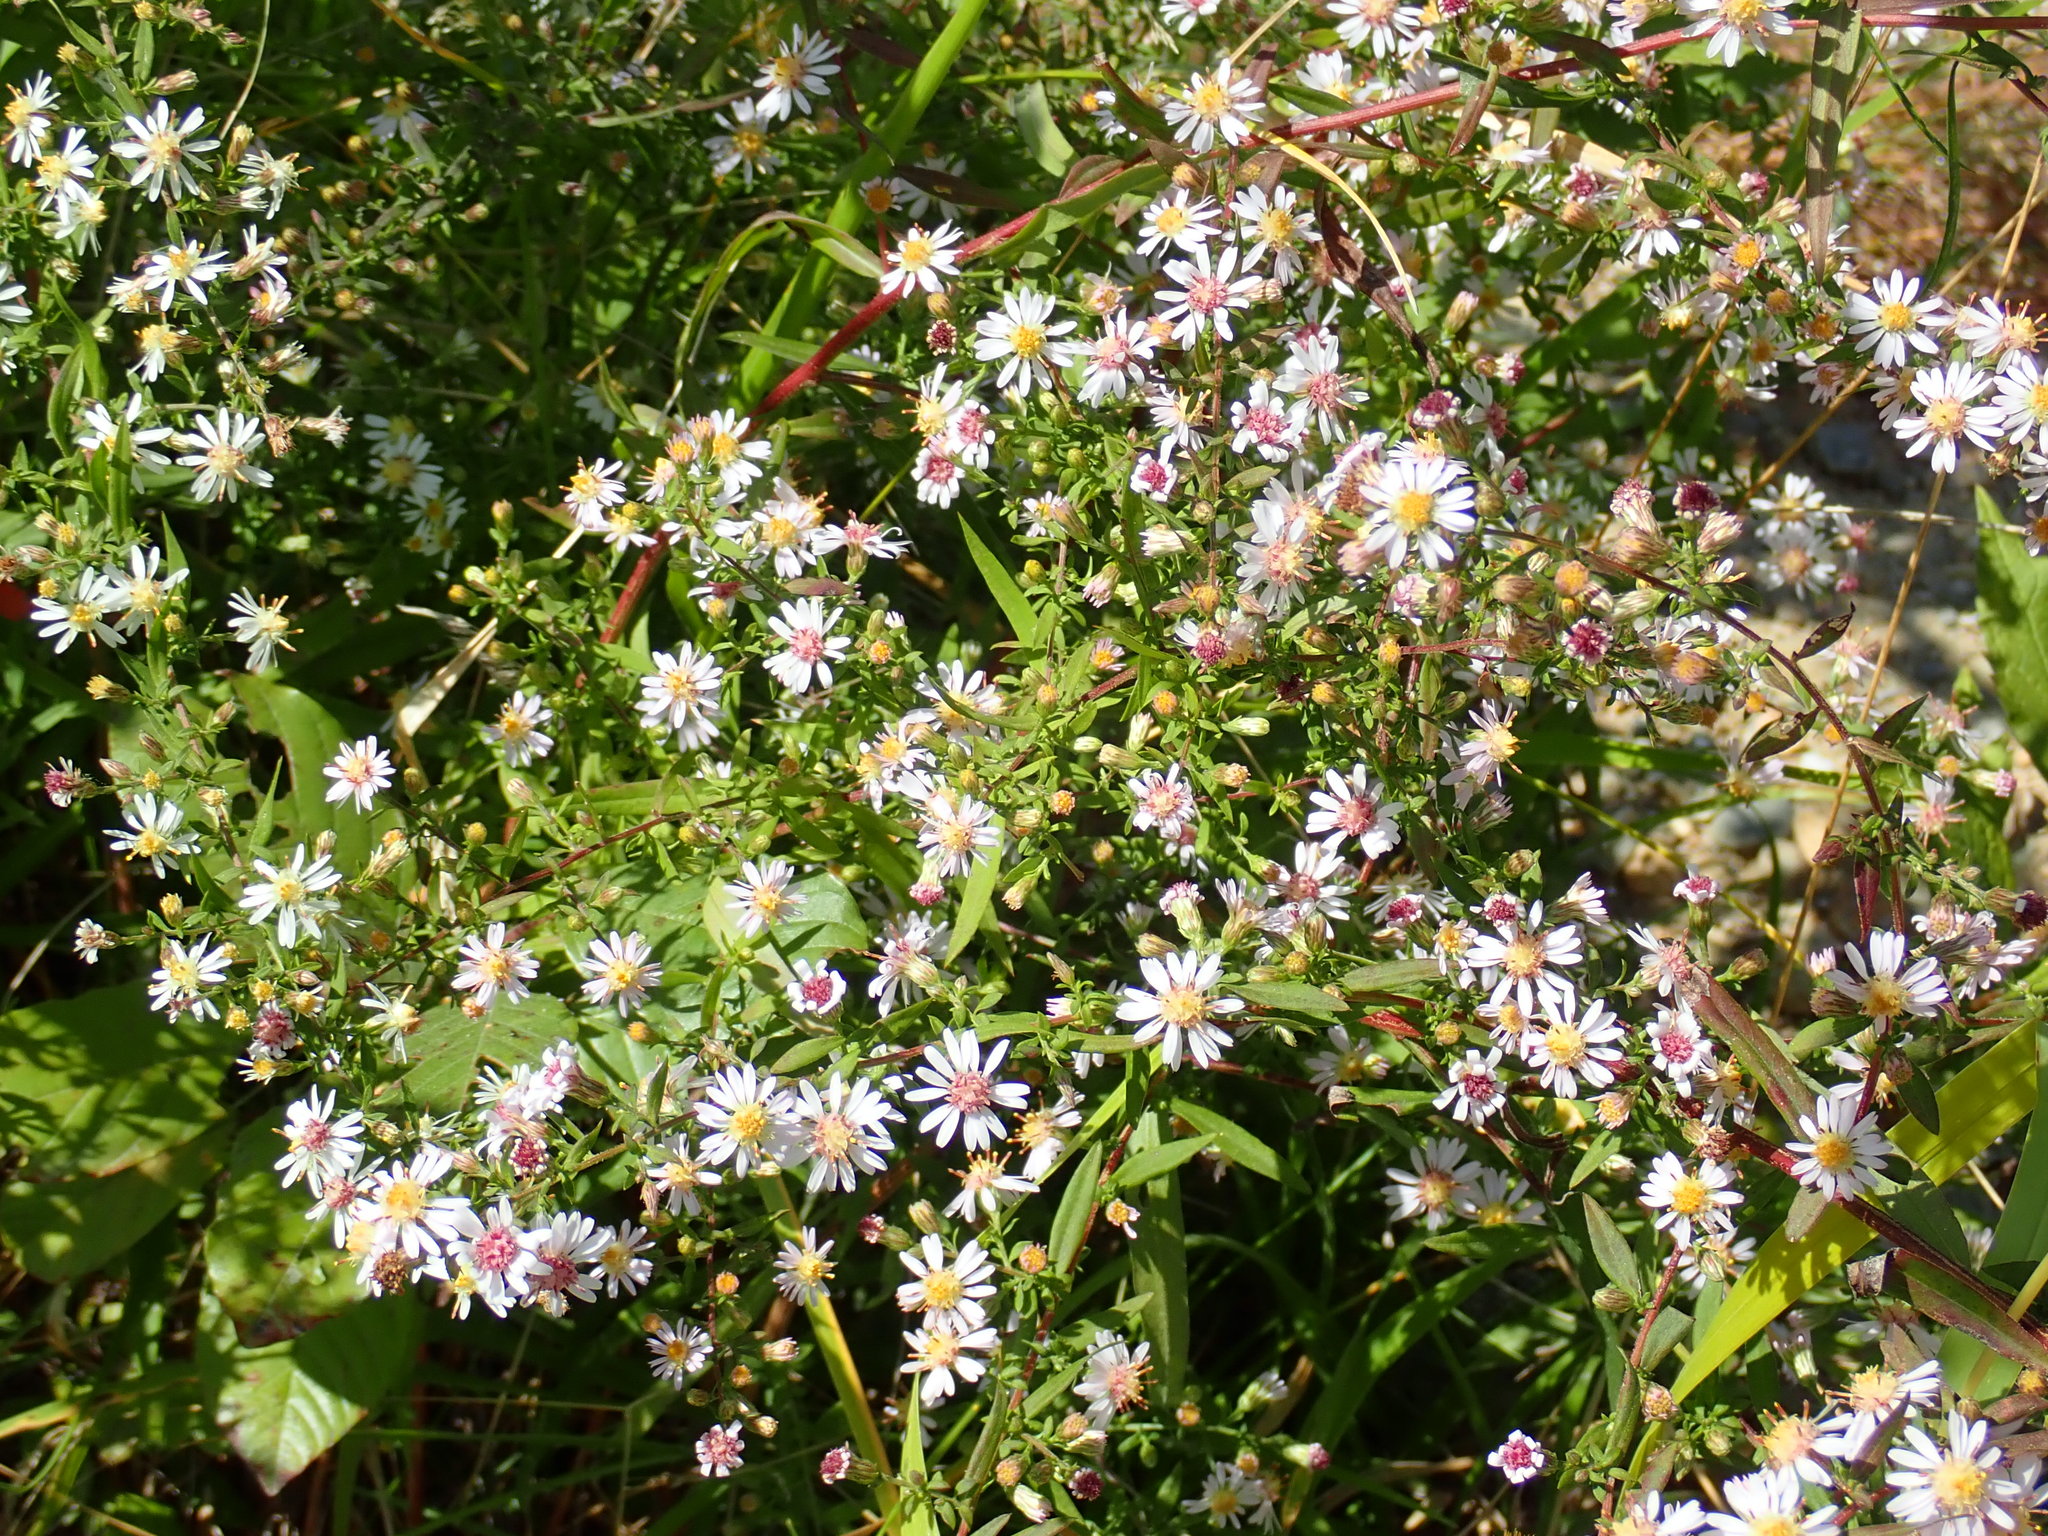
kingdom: Plantae
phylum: Tracheophyta
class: Magnoliopsida
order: Asterales
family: Asteraceae
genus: Symphyotrichum
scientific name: Symphyotrichum lateriflorum
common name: Calico aster
